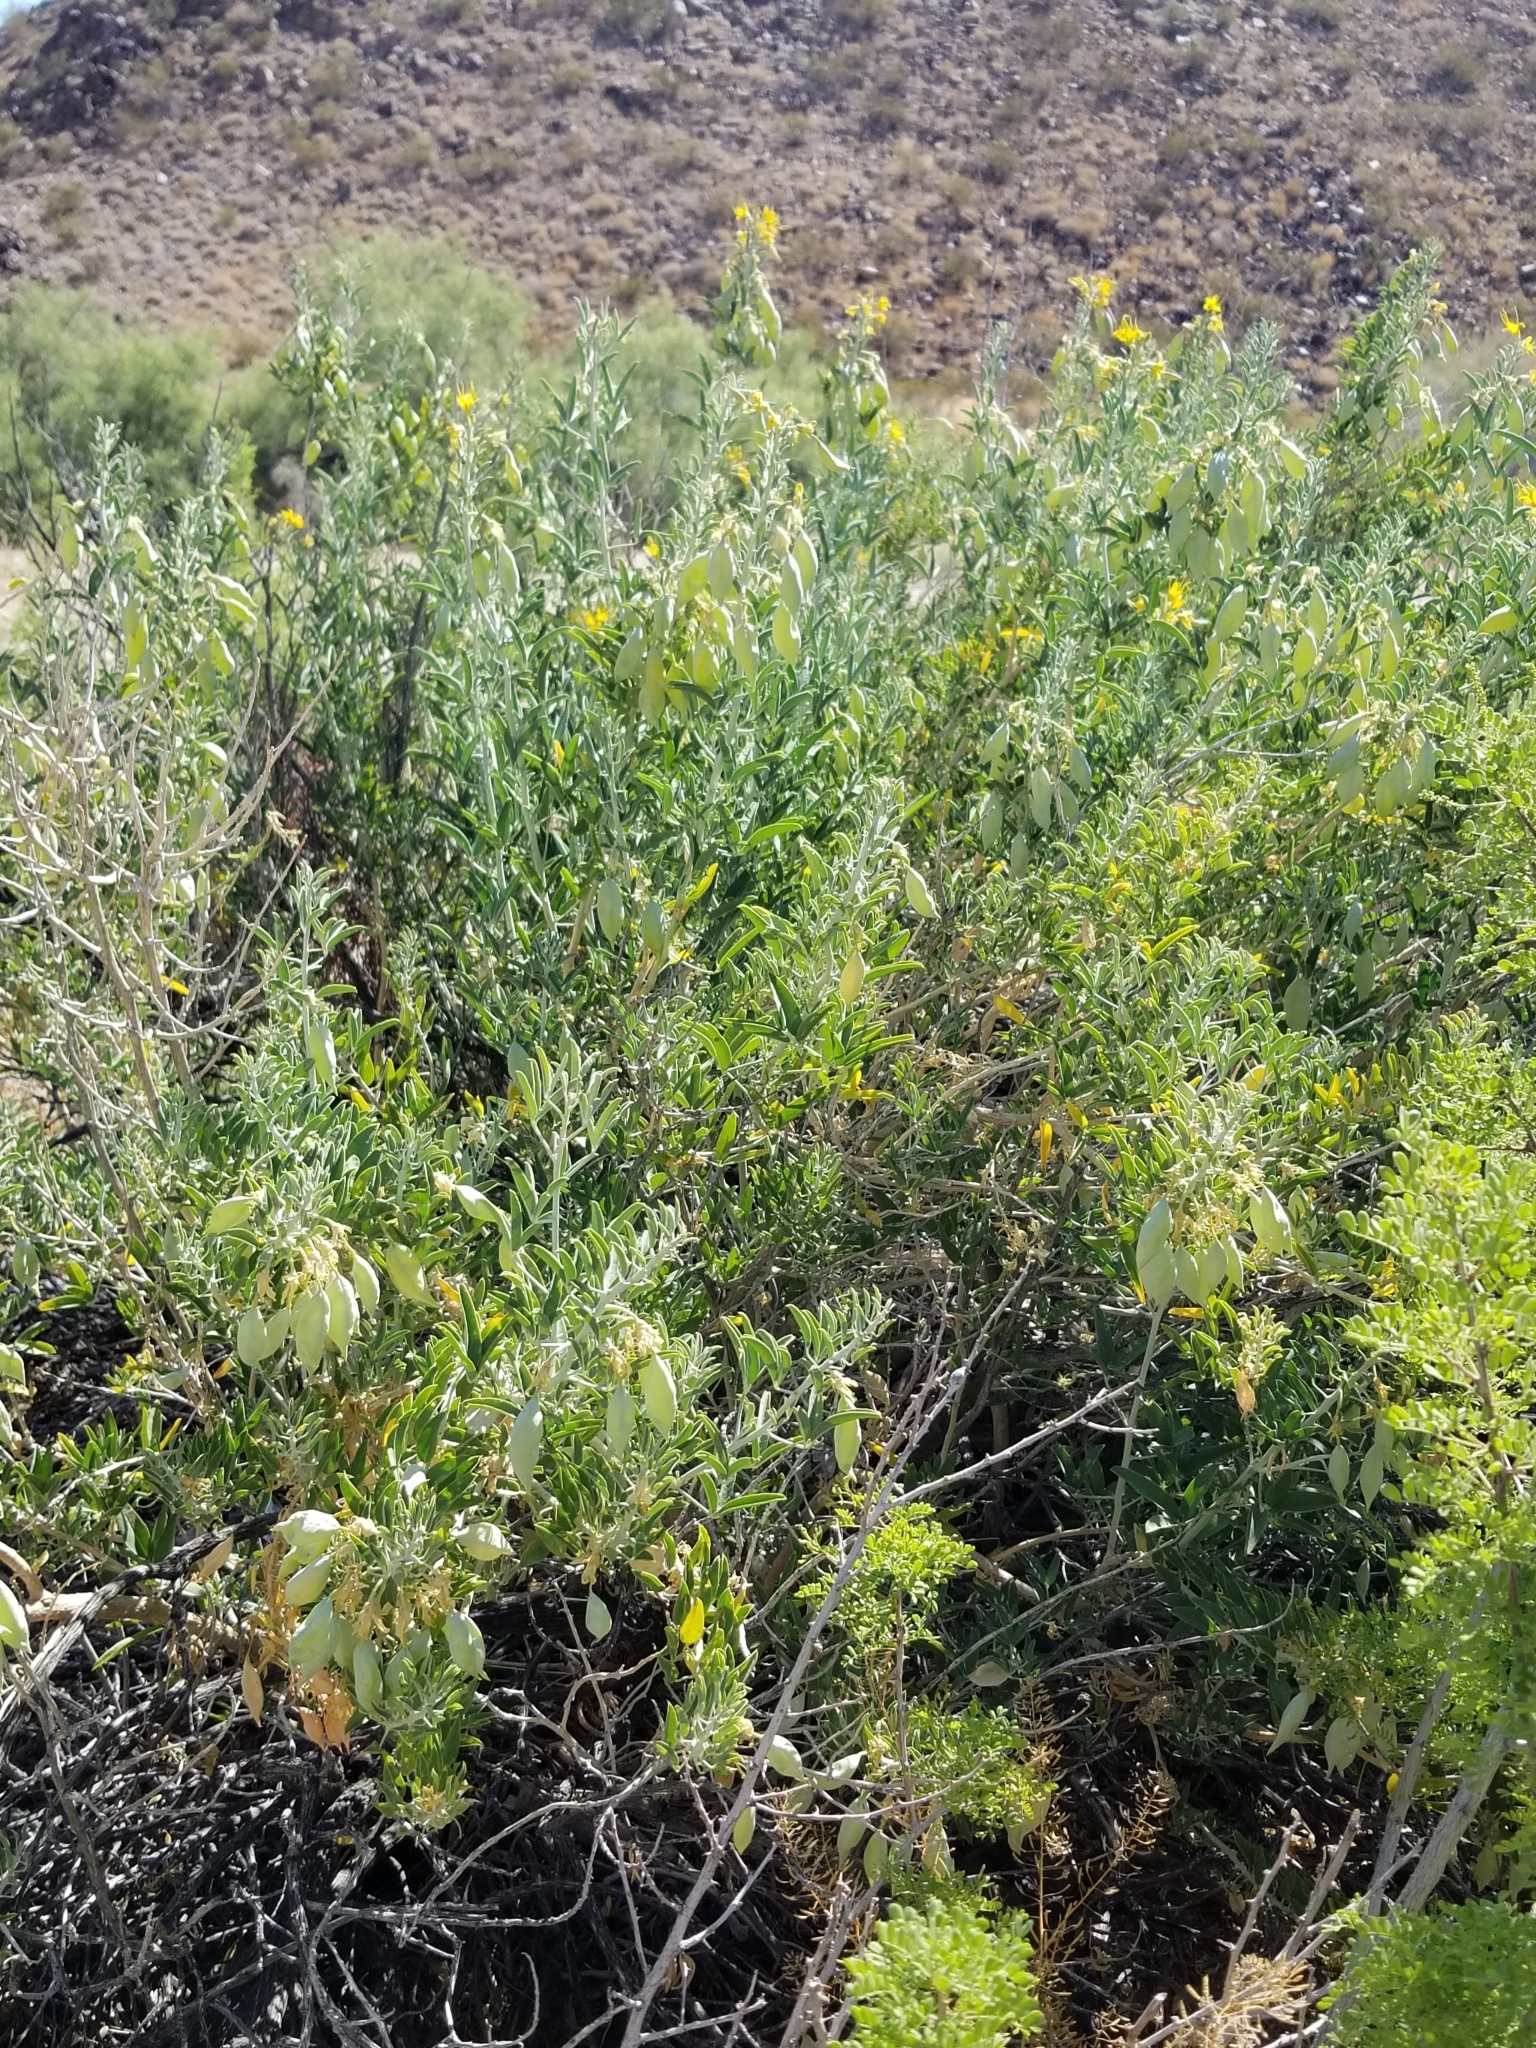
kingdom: Plantae
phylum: Tracheophyta
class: Magnoliopsida
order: Brassicales
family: Cleomaceae
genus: Cleomella
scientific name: Cleomella arborea
